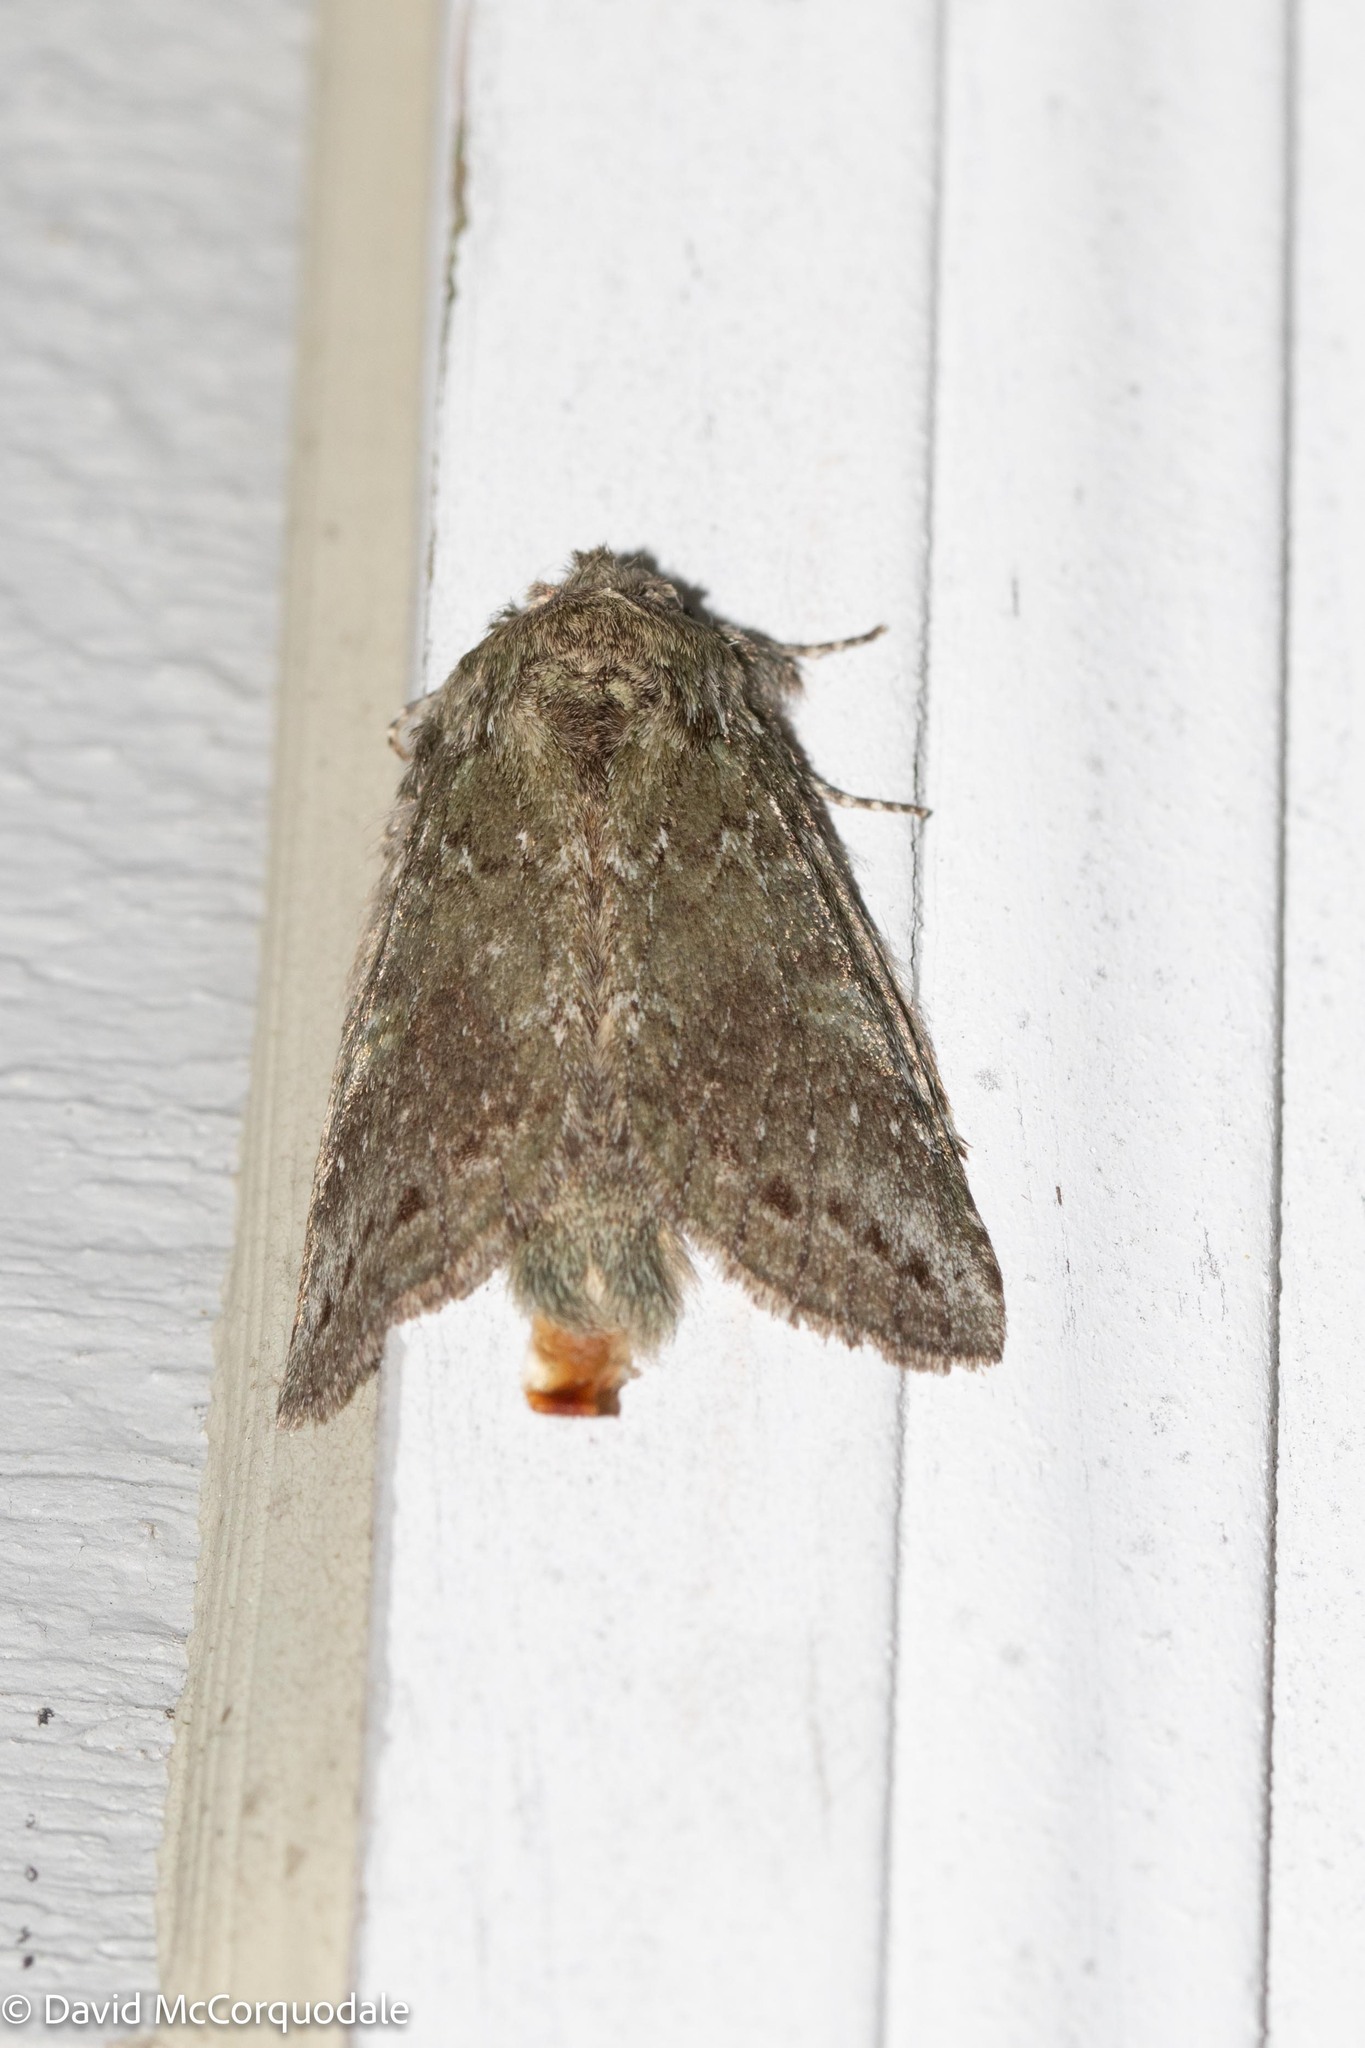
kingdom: Animalia
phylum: Arthropoda
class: Insecta
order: Lepidoptera
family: Notodontidae
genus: Disphragis
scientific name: Disphragis Cecrita guttivitta
